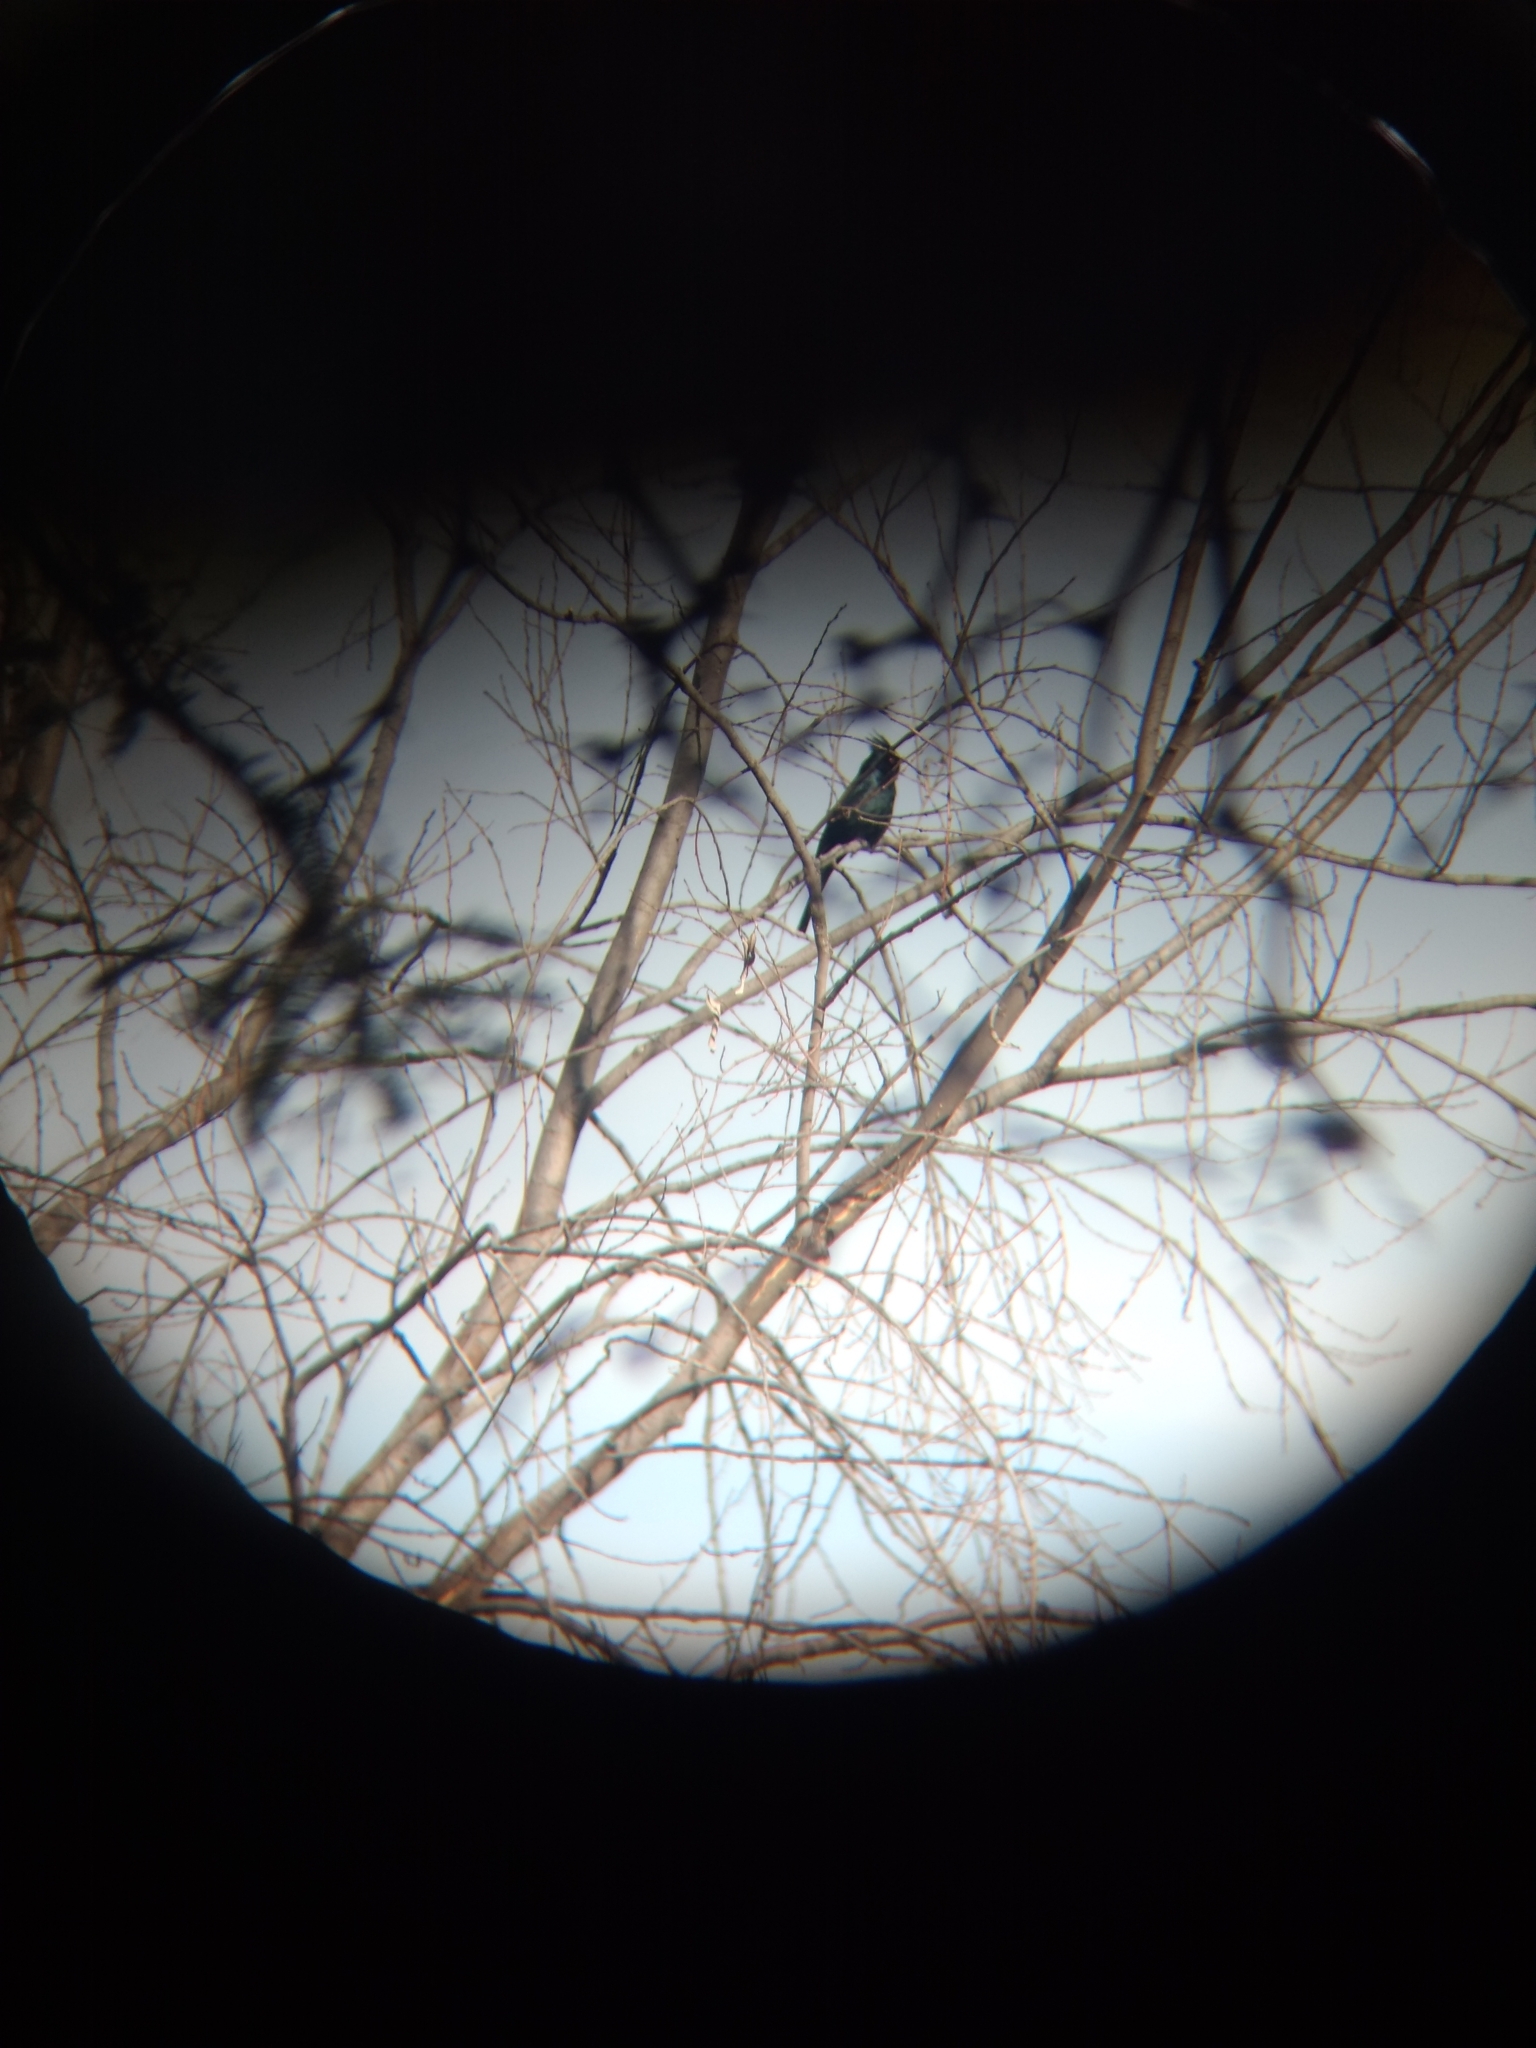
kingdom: Animalia
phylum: Chordata
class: Aves
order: Passeriformes
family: Ptilogonatidae
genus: Phainopepla
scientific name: Phainopepla nitens
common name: Phainopepla
